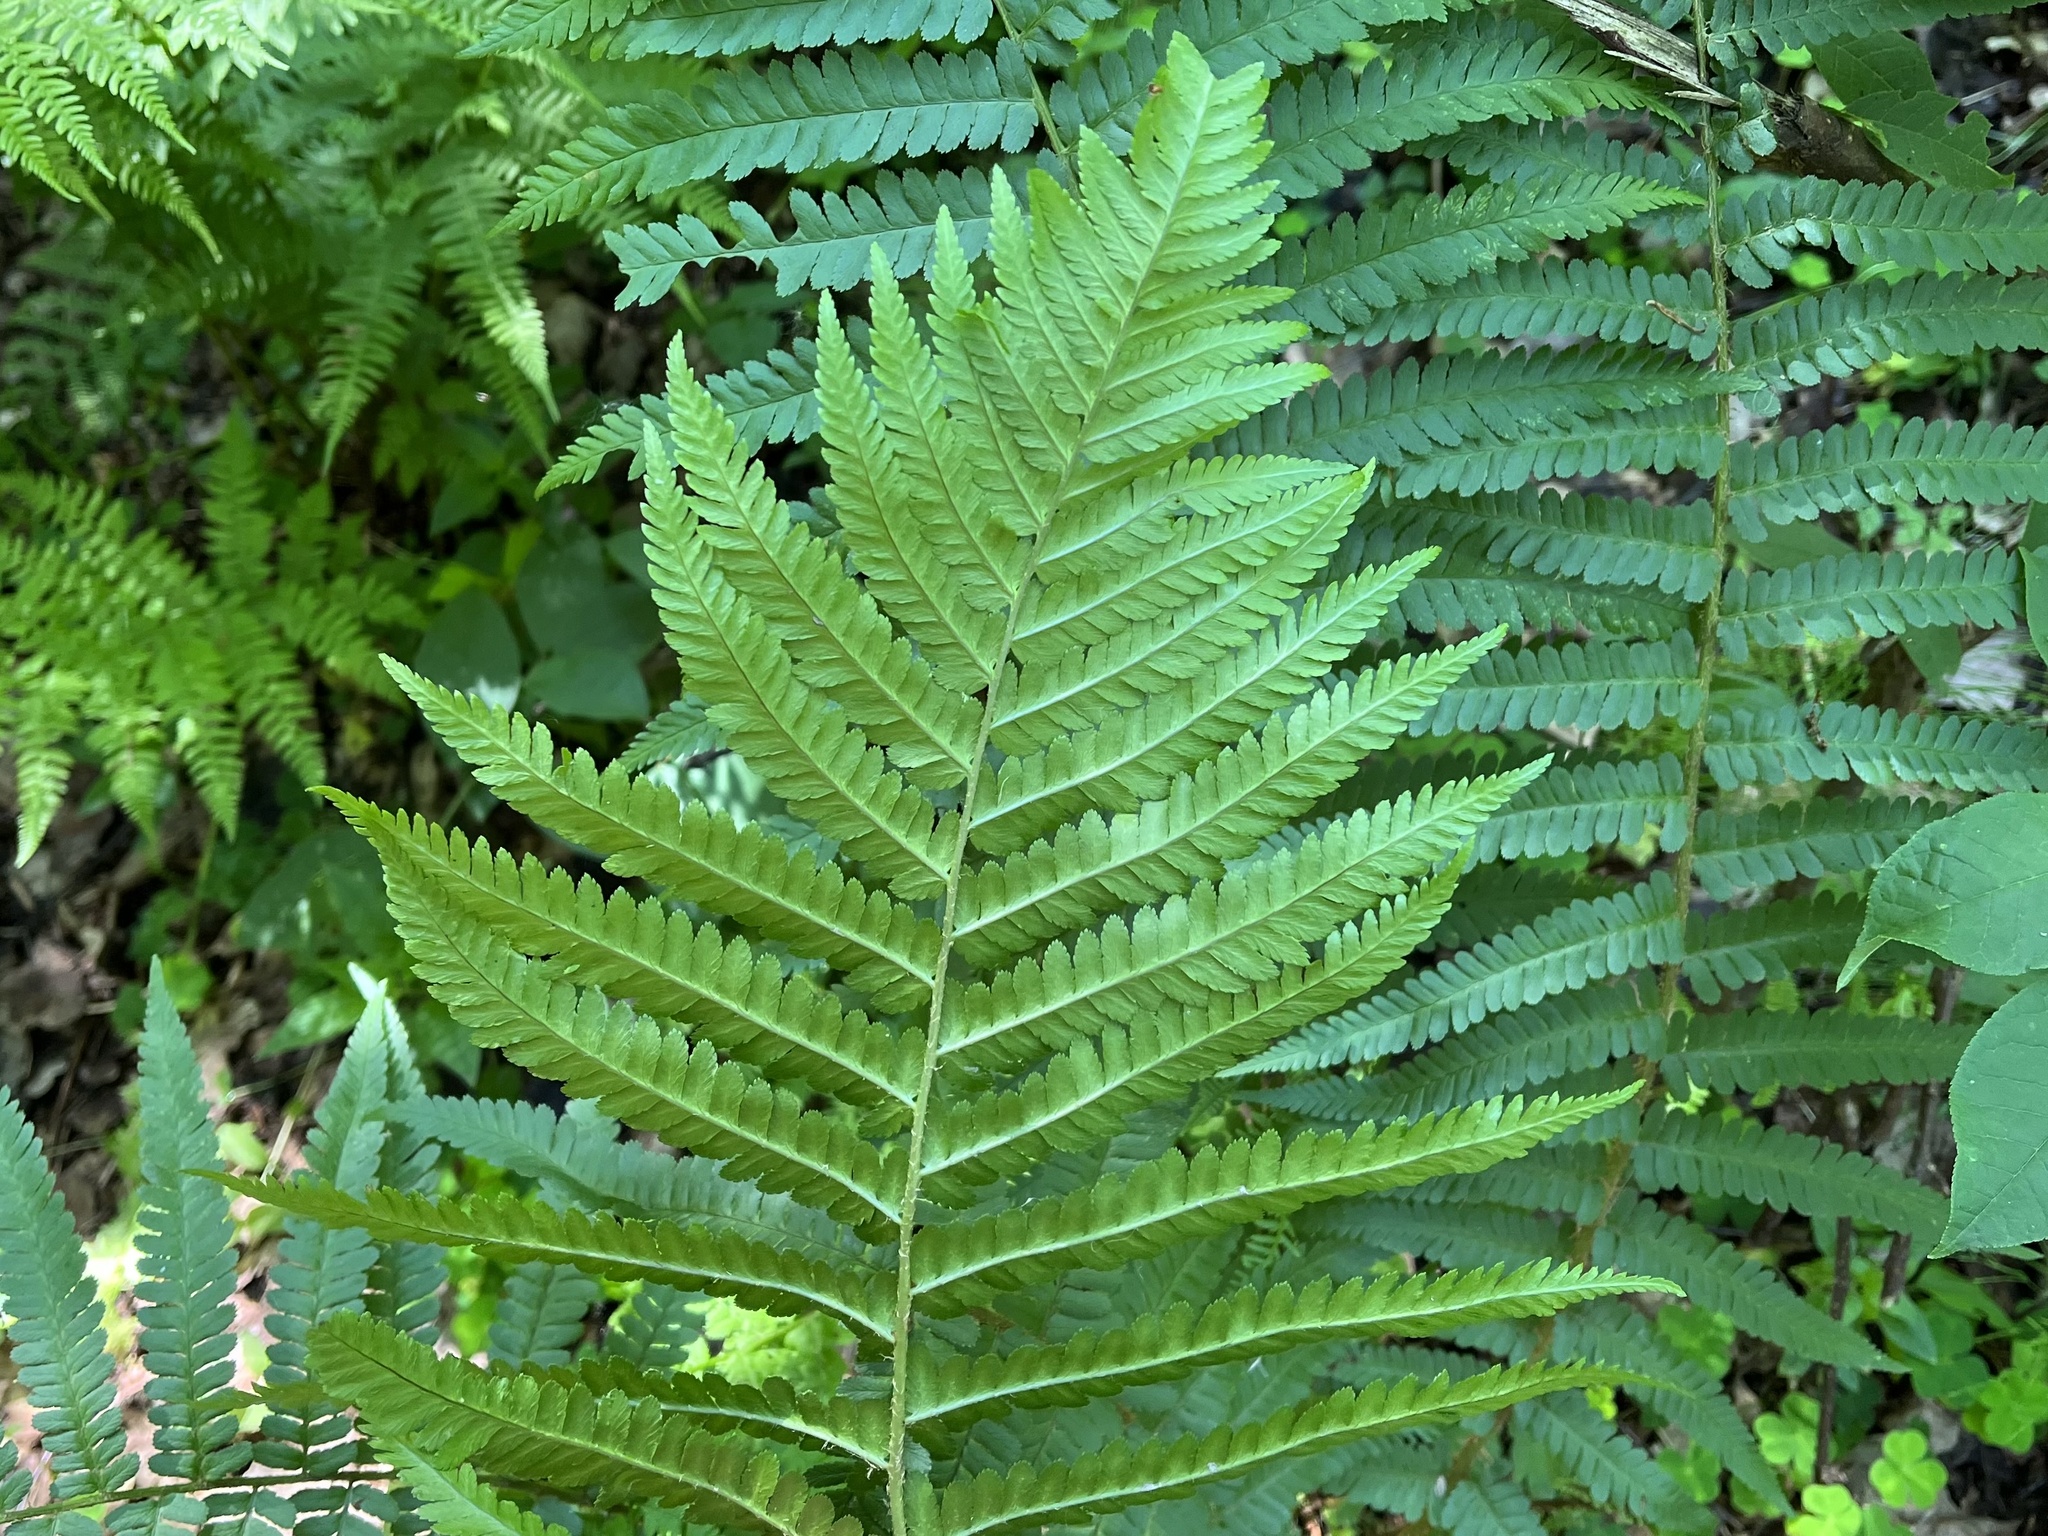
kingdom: Plantae
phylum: Tracheophyta
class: Polypodiopsida
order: Polypodiales
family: Dryopteridaceae
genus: Dryopteris
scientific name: Dryopteris filix-mas
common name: Male fern
